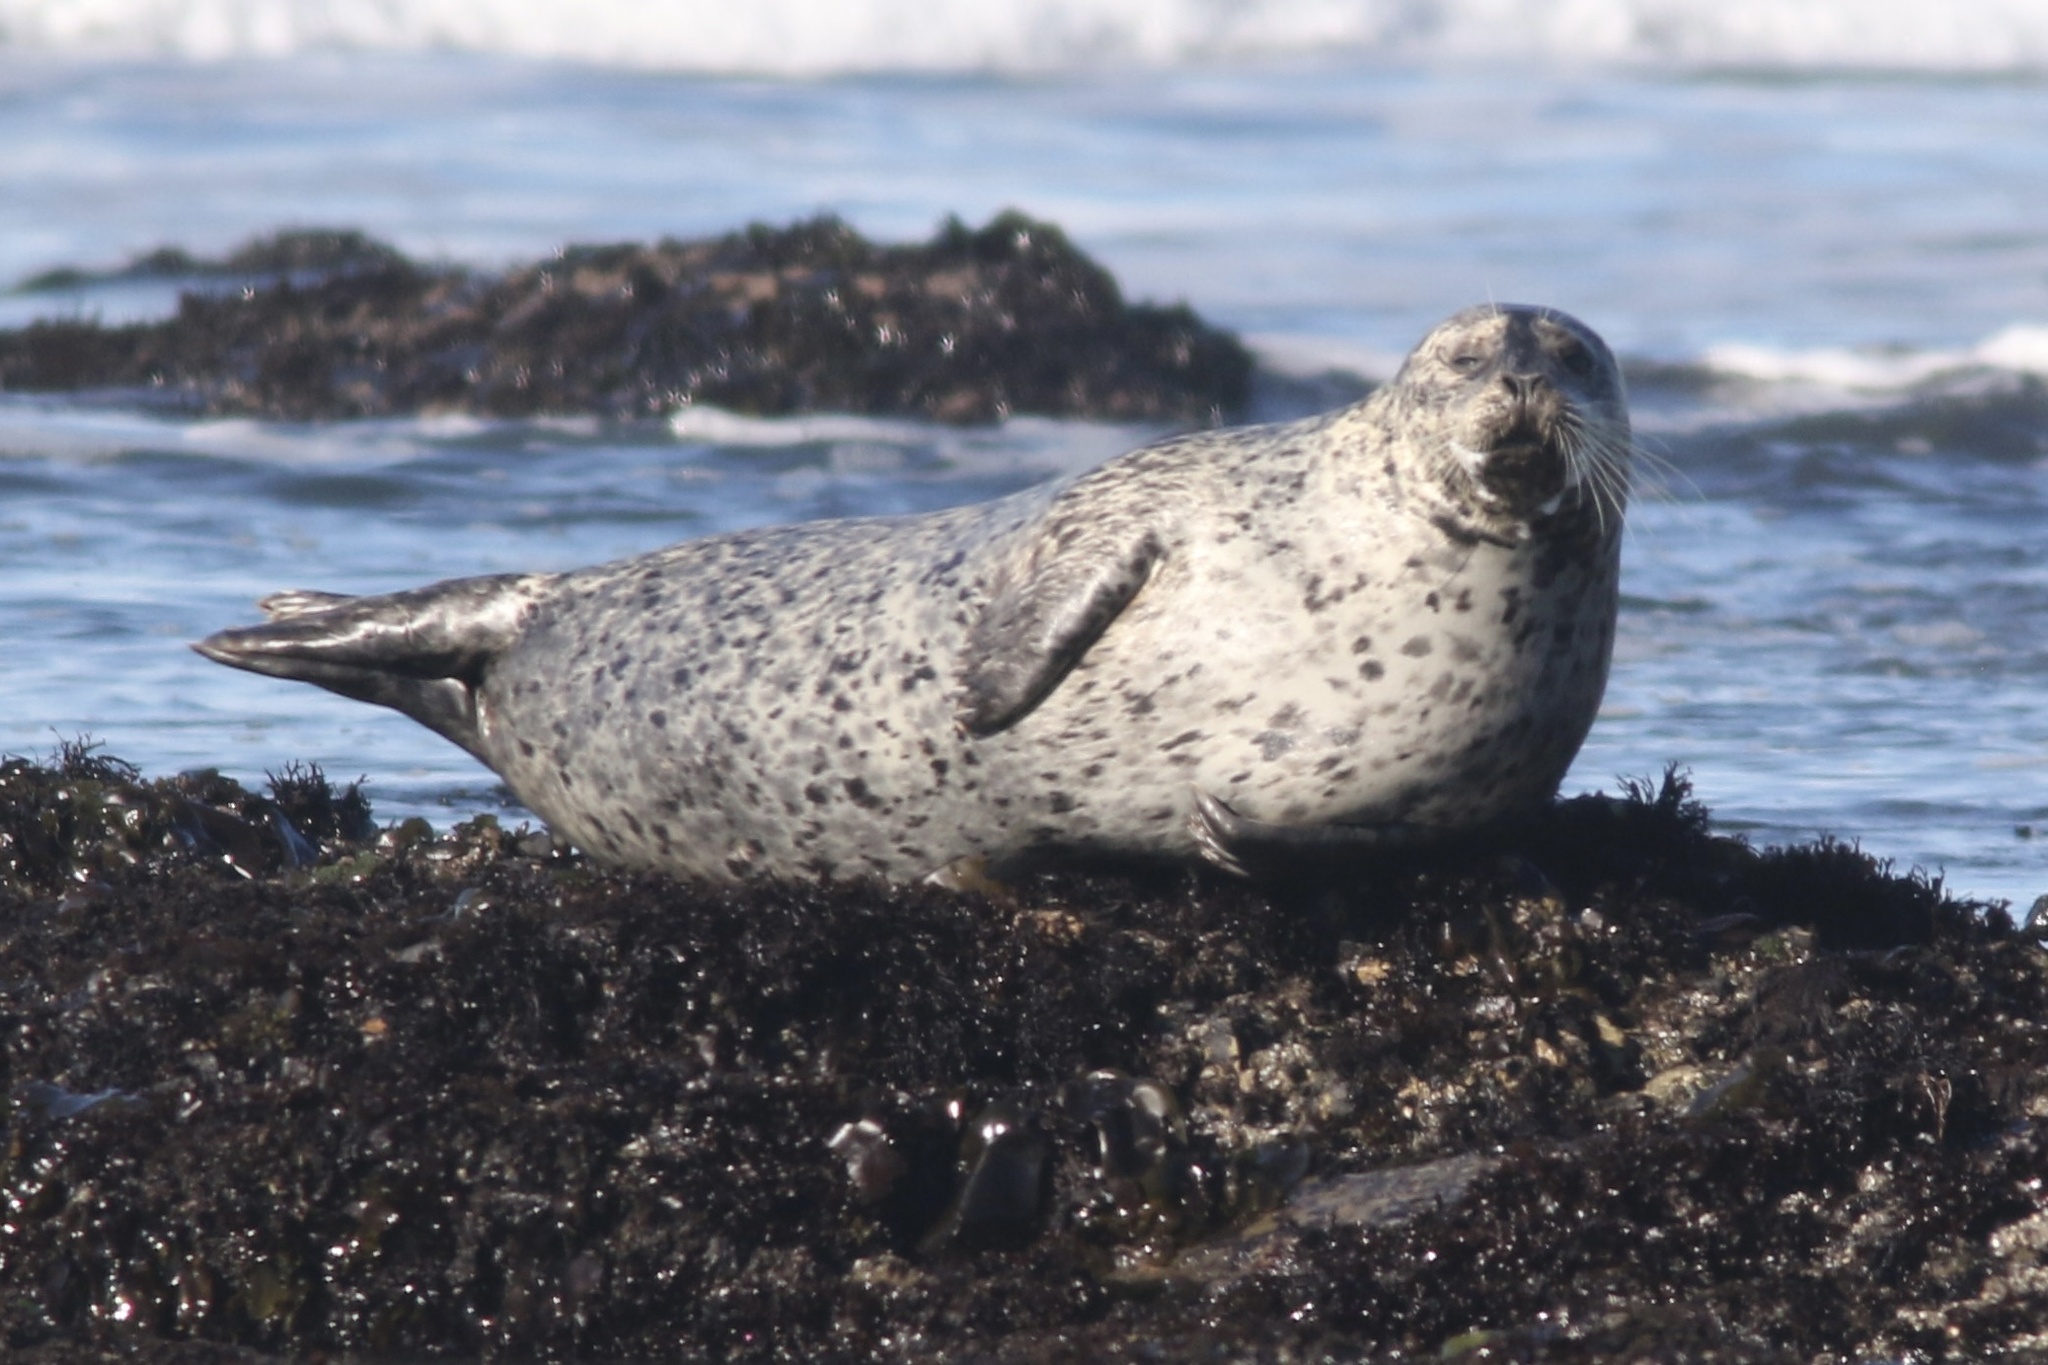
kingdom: Animalia
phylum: Chordata
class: Mammalia
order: Carnivora
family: Phocidae
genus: Phoca
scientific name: Phoca vitulina
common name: Harbor seal
